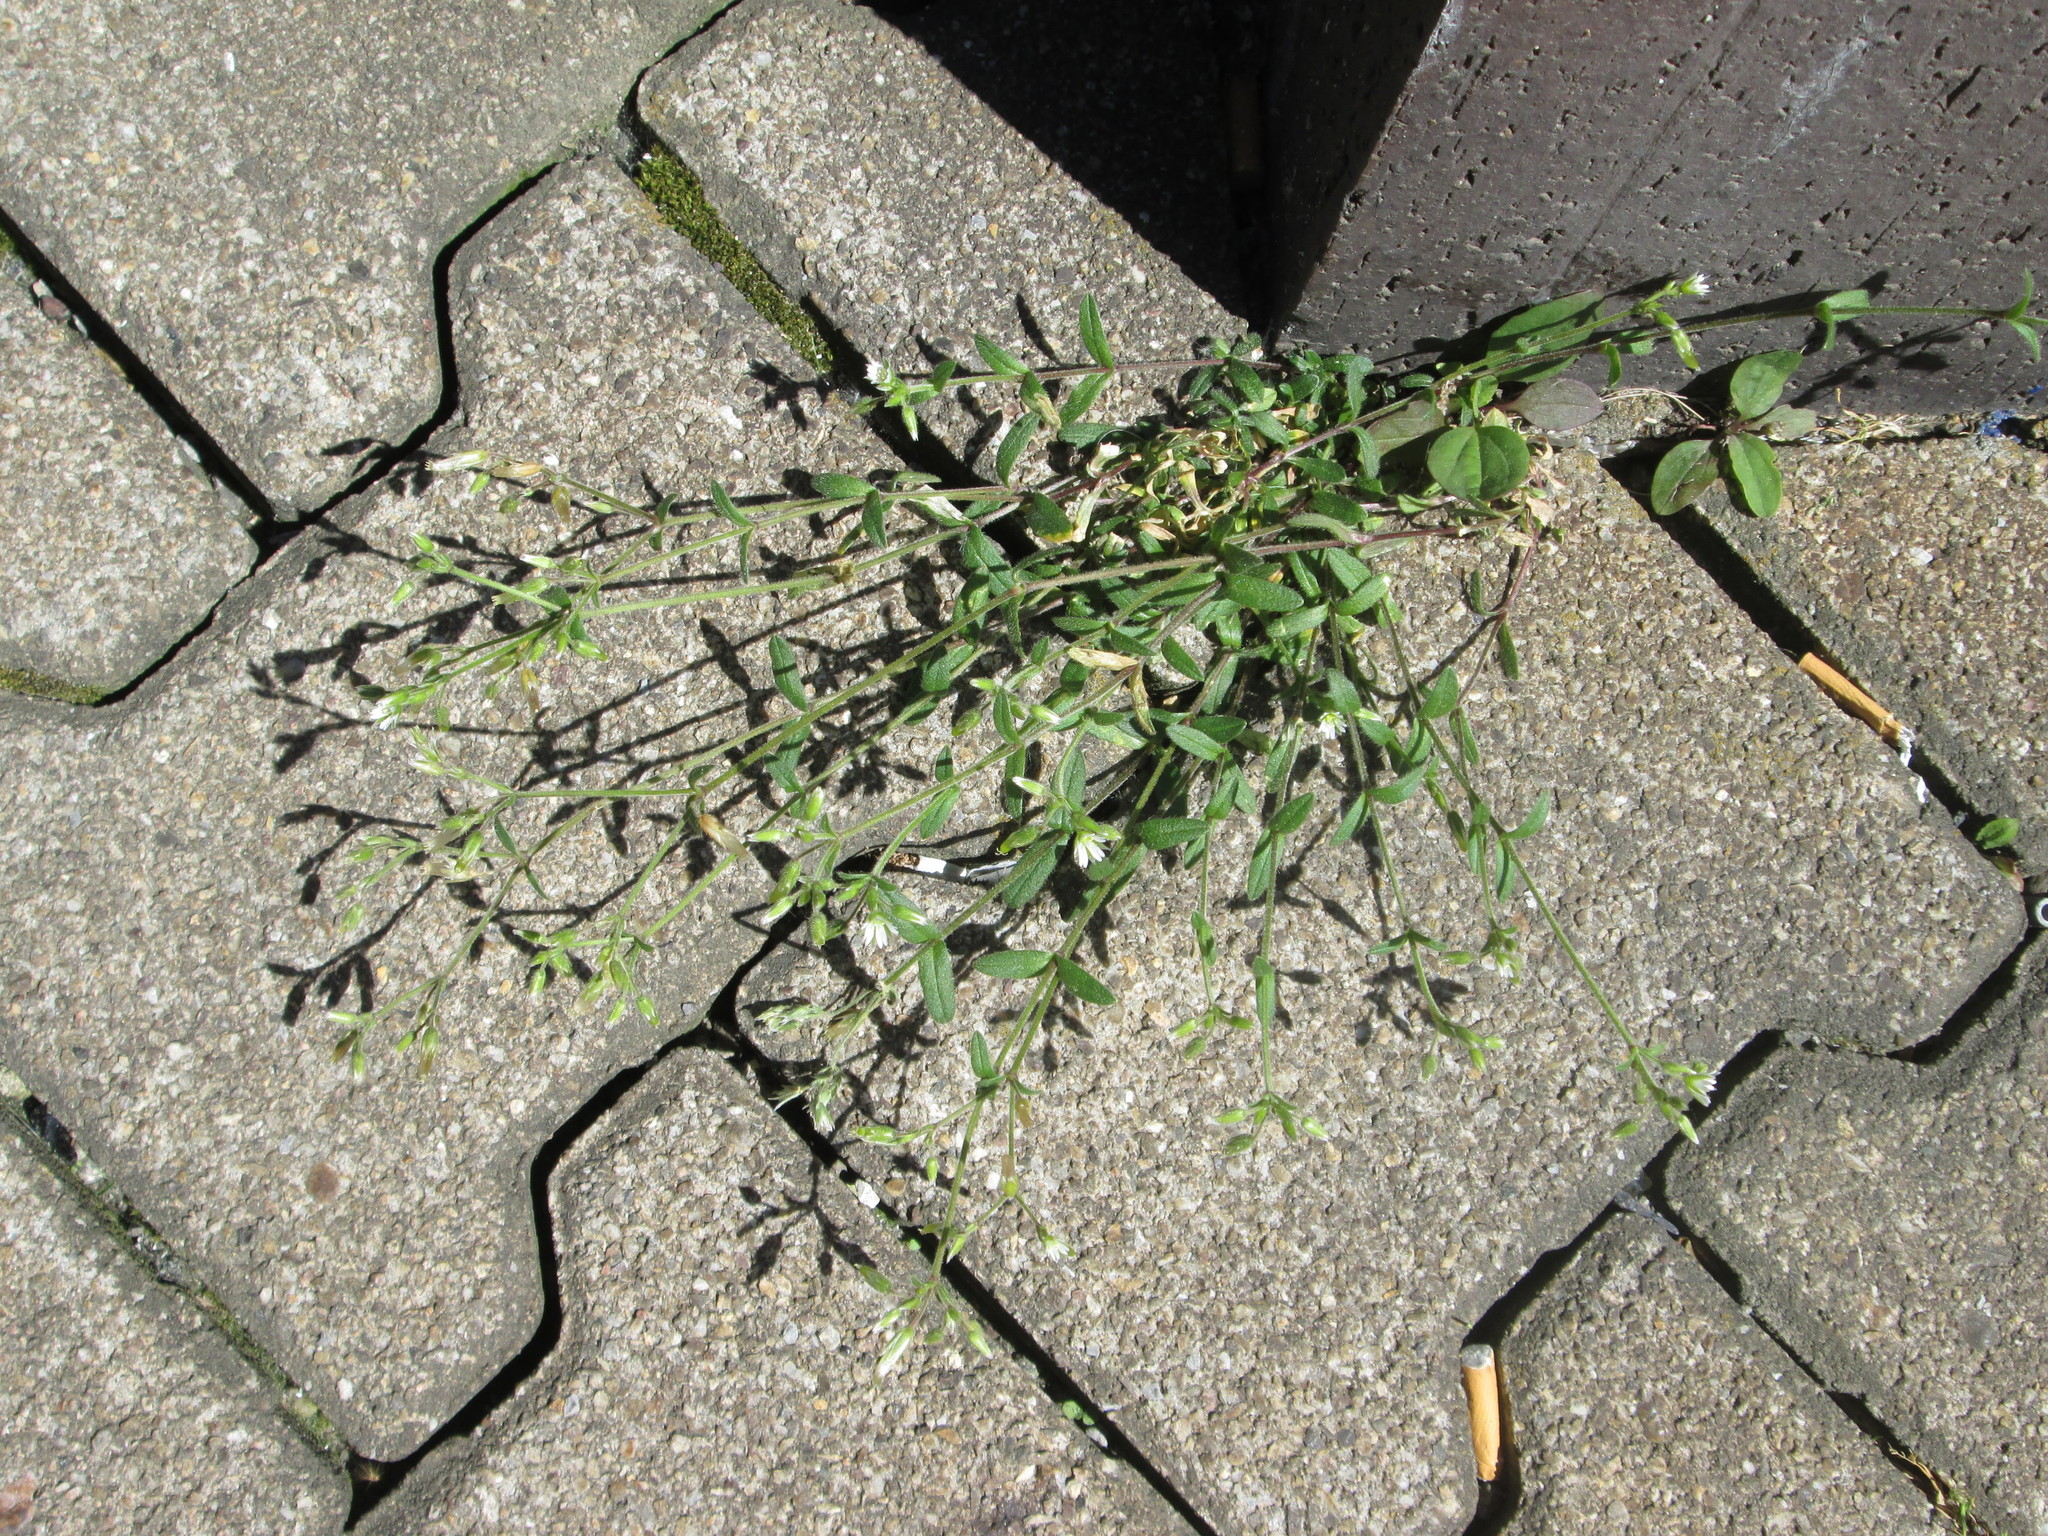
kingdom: Plantae
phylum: Tracheophyta
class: Magnoliopsida
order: Caryophyllales
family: Caryophyllaceae
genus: Cerastium
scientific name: Cerastium holosteoides
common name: Big chickweed
